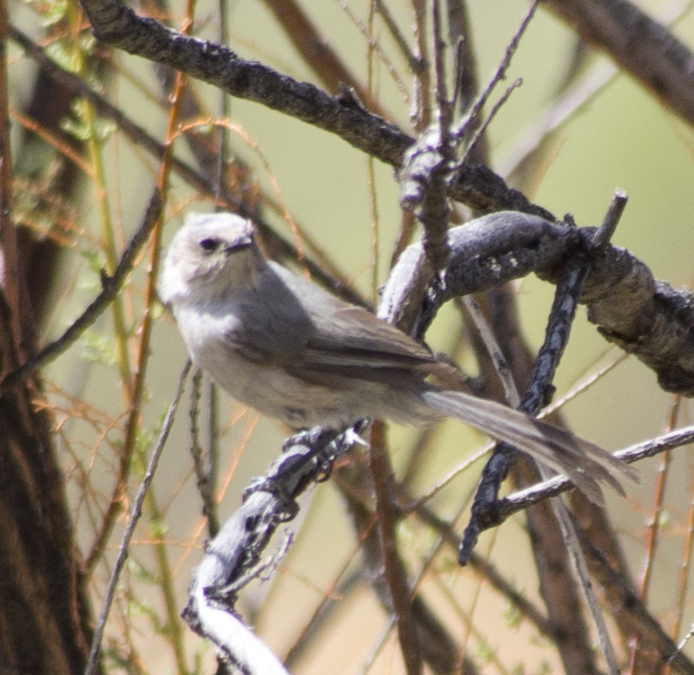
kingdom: Animalia
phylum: Chordata
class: Aves
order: Passeriformes
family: Aegithalidae
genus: Psaltriparus
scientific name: Psaltriparus minimus
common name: American bushtit
